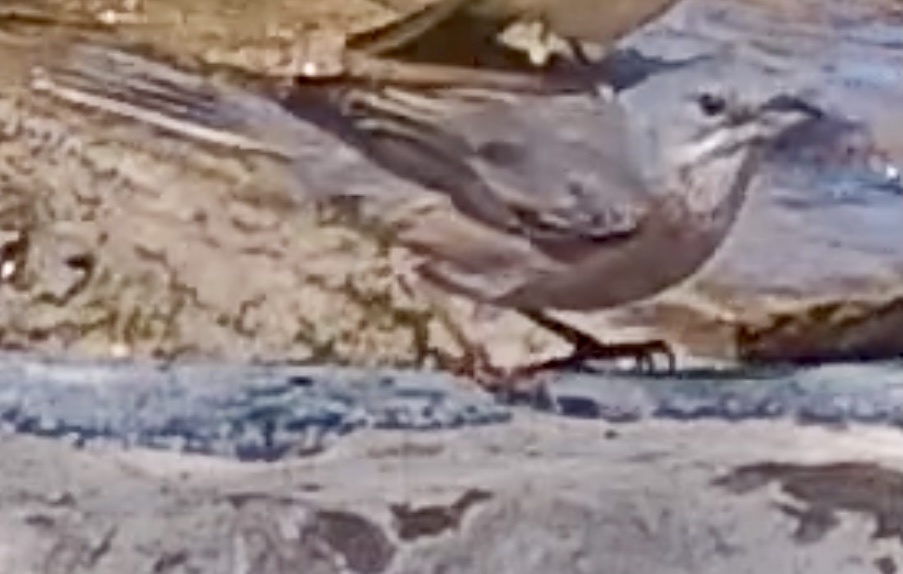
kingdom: Animalia
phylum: Chordata
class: Aves
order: Passeriformes
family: Sylviidae
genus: Curruca
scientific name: Curruca iberiae
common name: Western subalpine warbler
